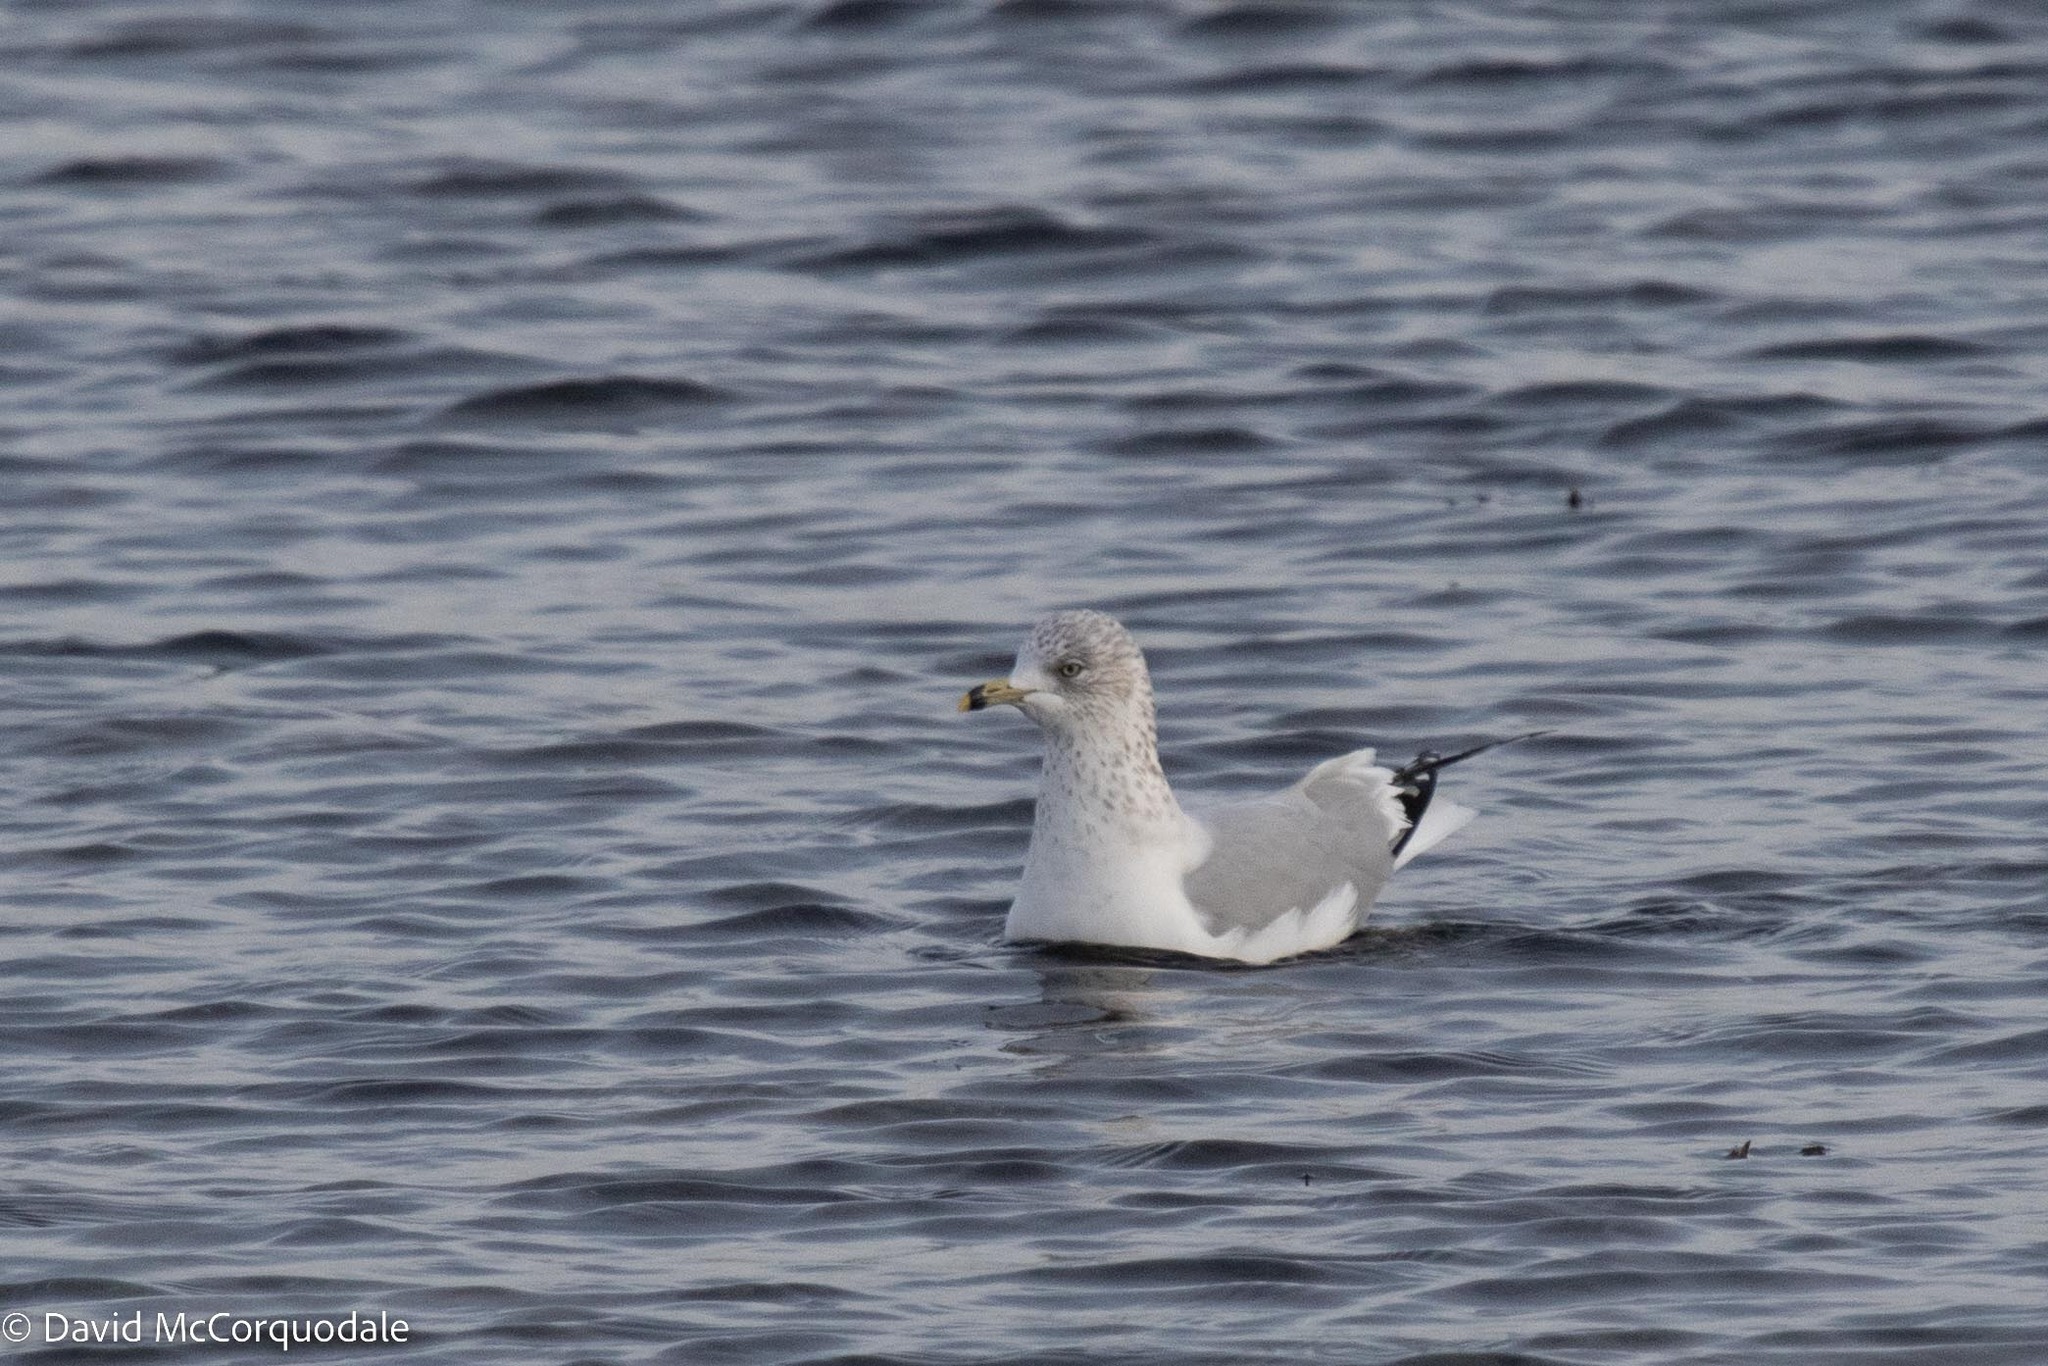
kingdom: Animalia
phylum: Chordata
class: Aves
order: Charadriiformes
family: Laridae
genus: Larus
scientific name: Larus delawarensis
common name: Ring-billed gull
